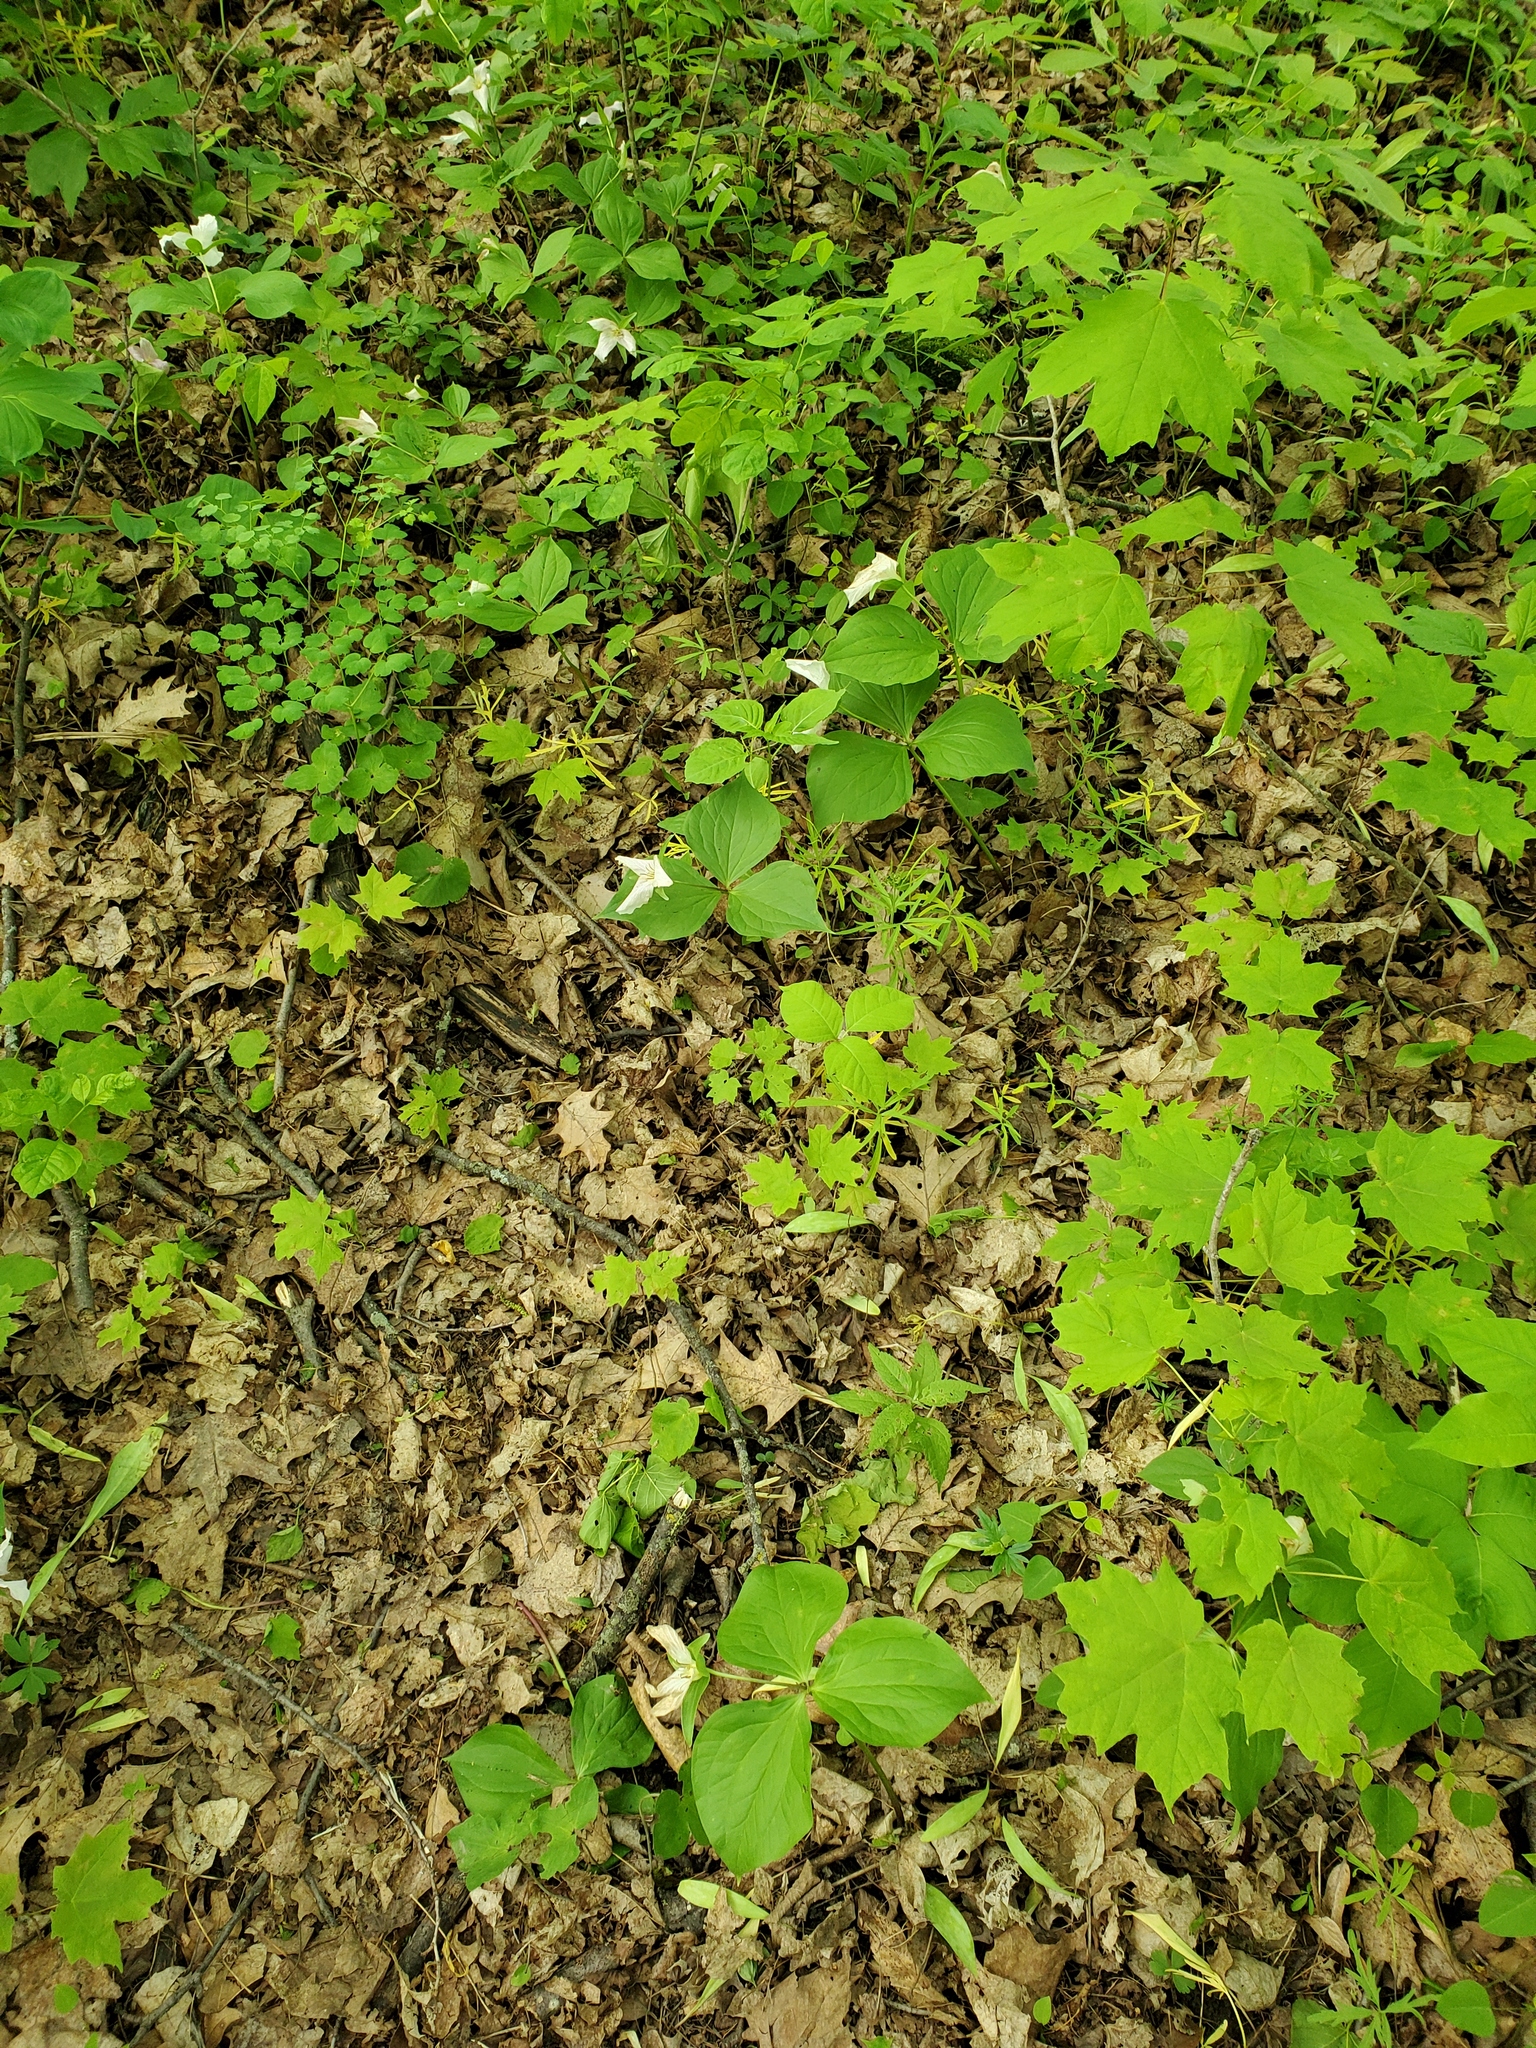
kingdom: Plantae
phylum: Tracheophyta
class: Liliopsida
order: Liliales
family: Melanthiaceae
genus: Trillium
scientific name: Trillium grandiflorum
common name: Great white trillium
